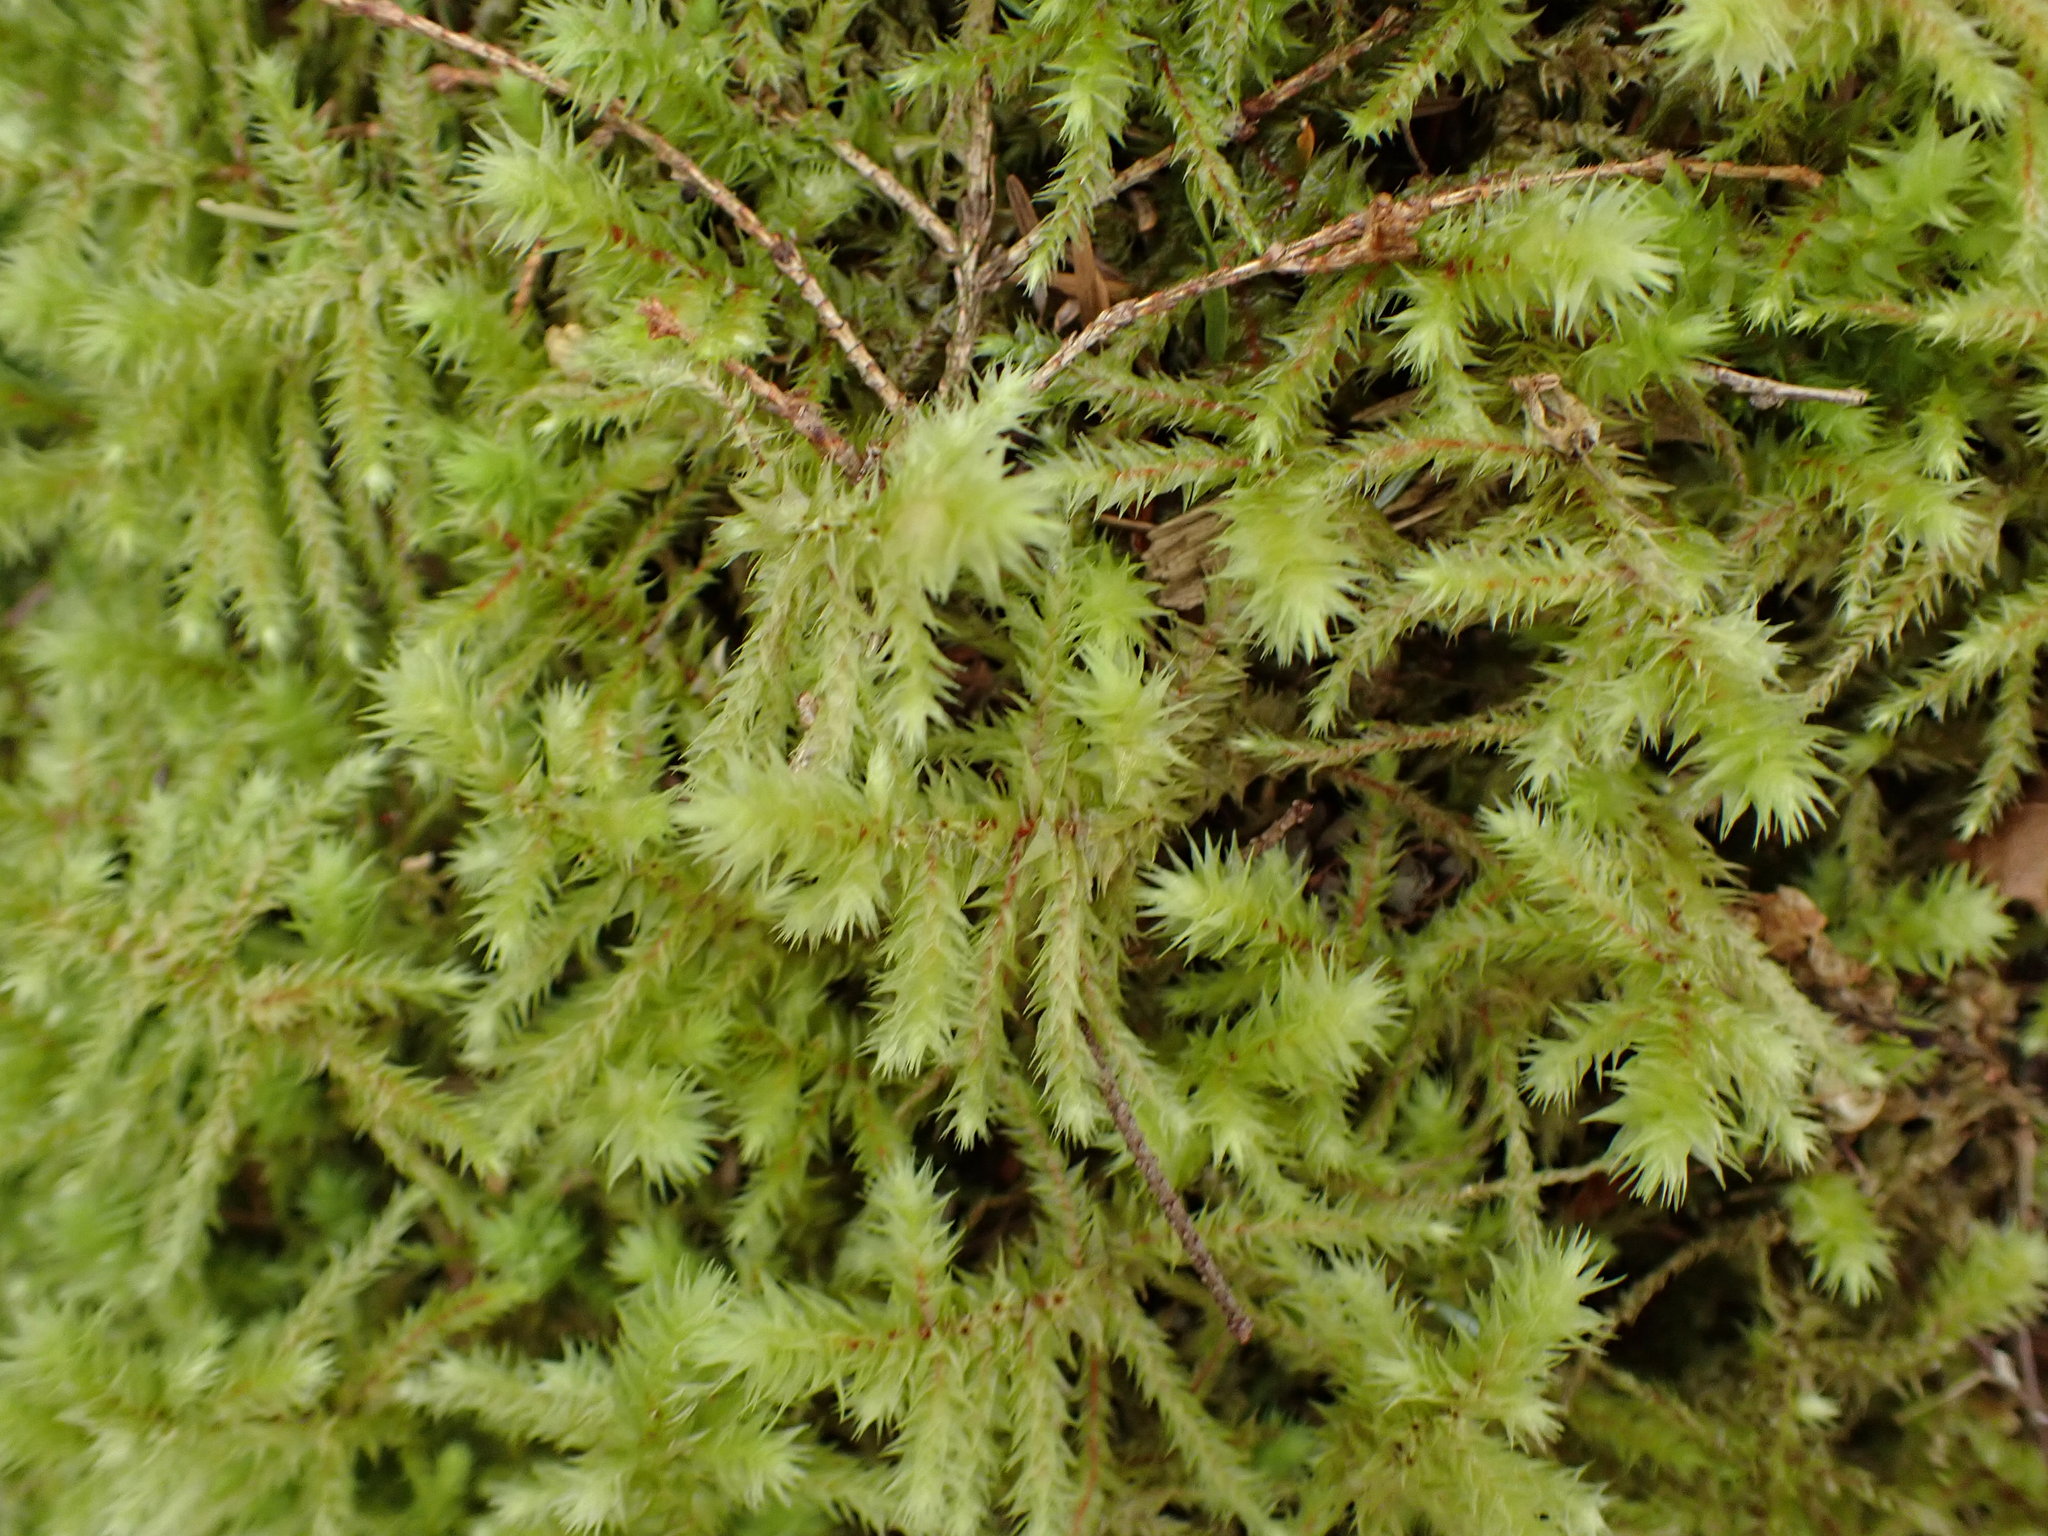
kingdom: Plantae
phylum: Bryophyta
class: Bryopsida
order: Hypnales
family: Hylocomiaceae
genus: Hylocomiadelphus
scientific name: Hylocomiadelphus triquetrus
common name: Rough goose neck moss
